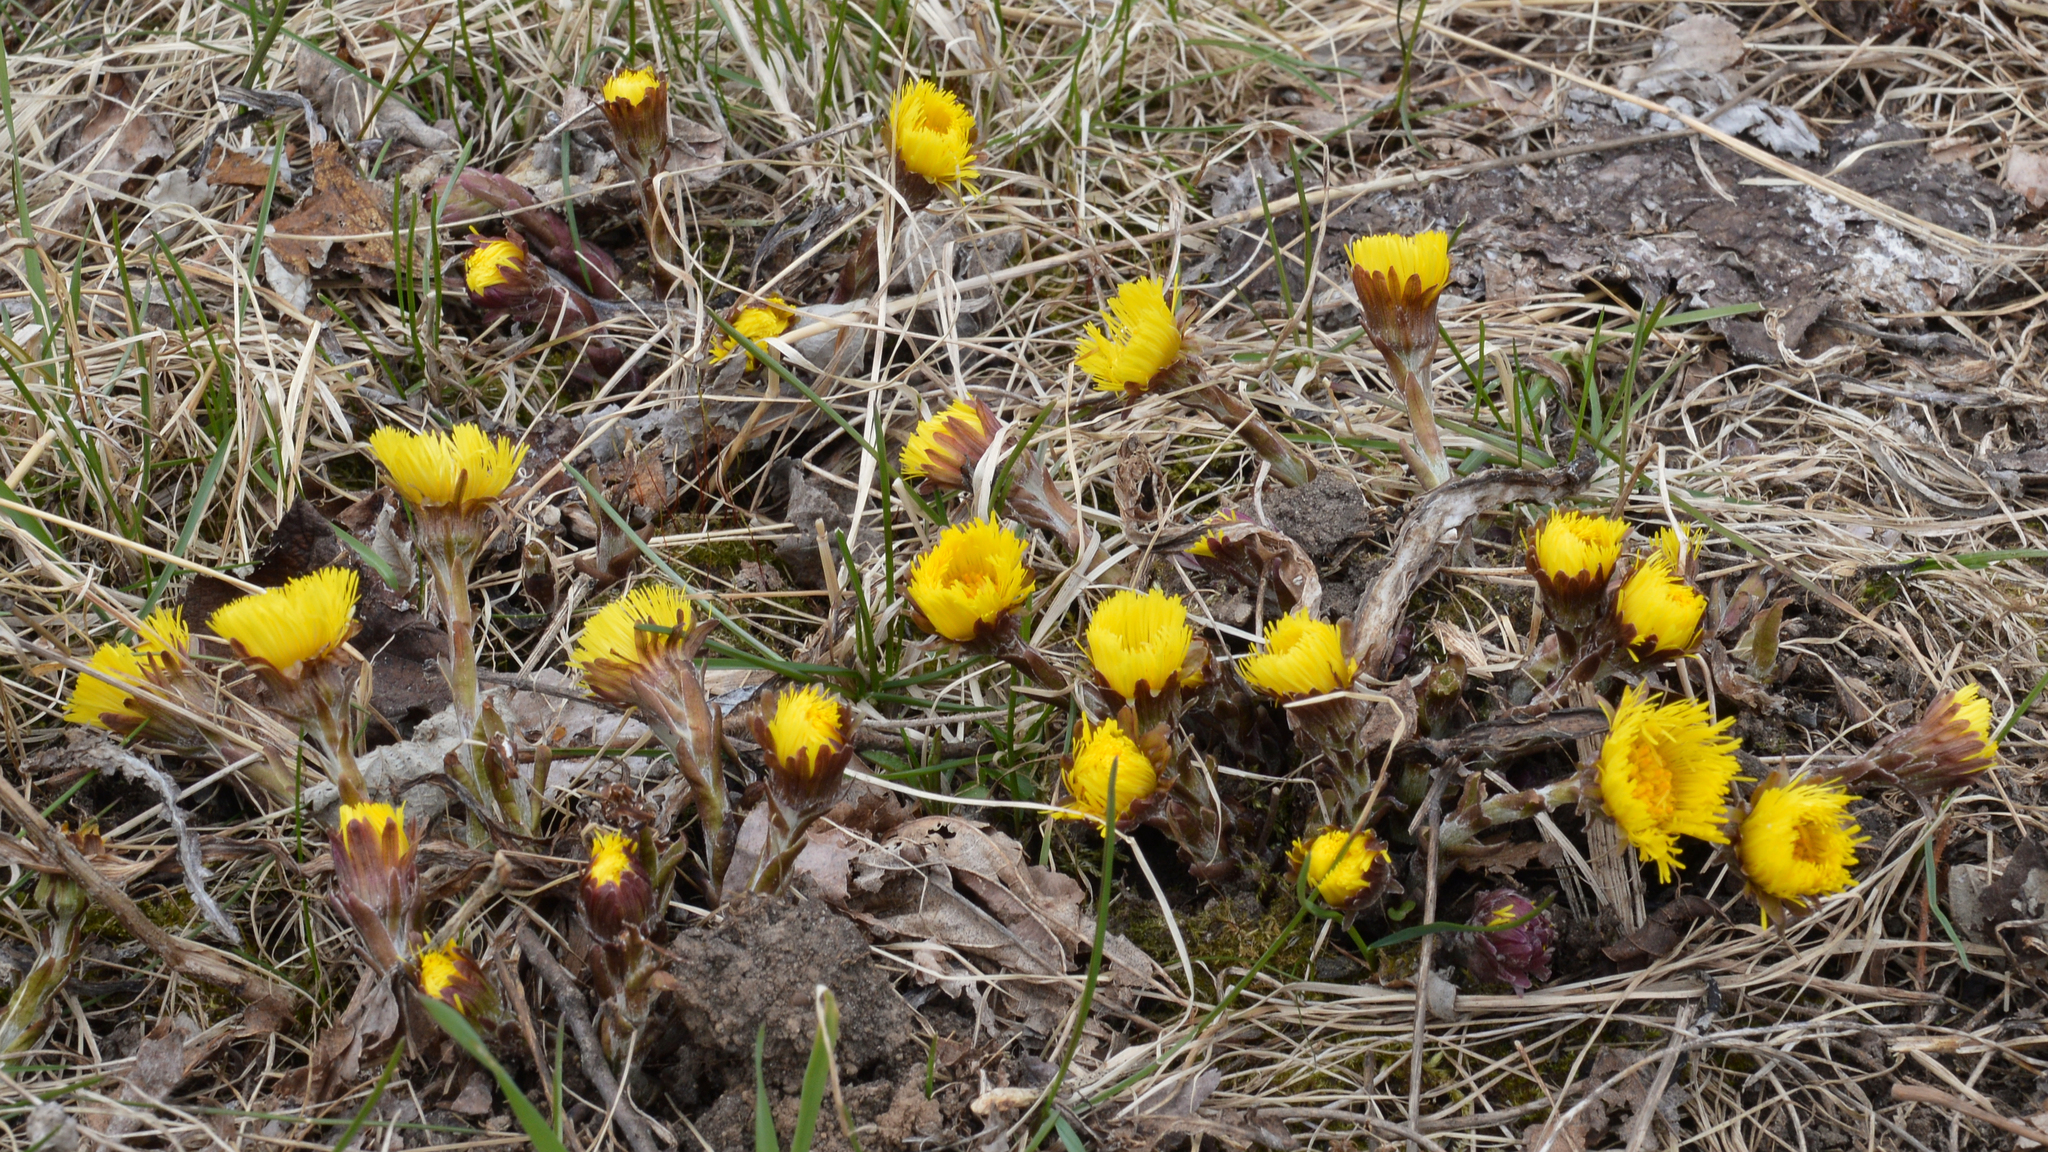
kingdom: Plantae
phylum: Tracheophyta
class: Magnoliopsida
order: Asterales
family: Asteraceae
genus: Tussilago
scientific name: Tussilago farfara
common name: Coltsfoot
